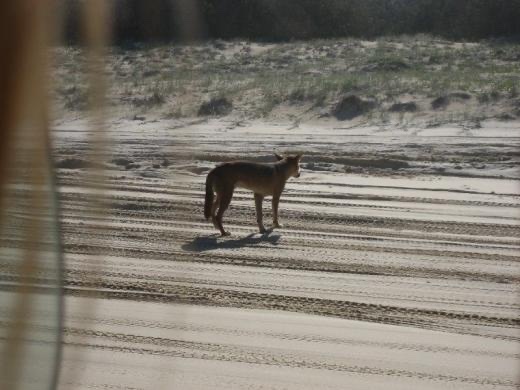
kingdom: Animalia
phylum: Chordata
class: Mammalia
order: Carnivora
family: Canidae
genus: Canis
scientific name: Canis lupus
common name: Gray wolf
